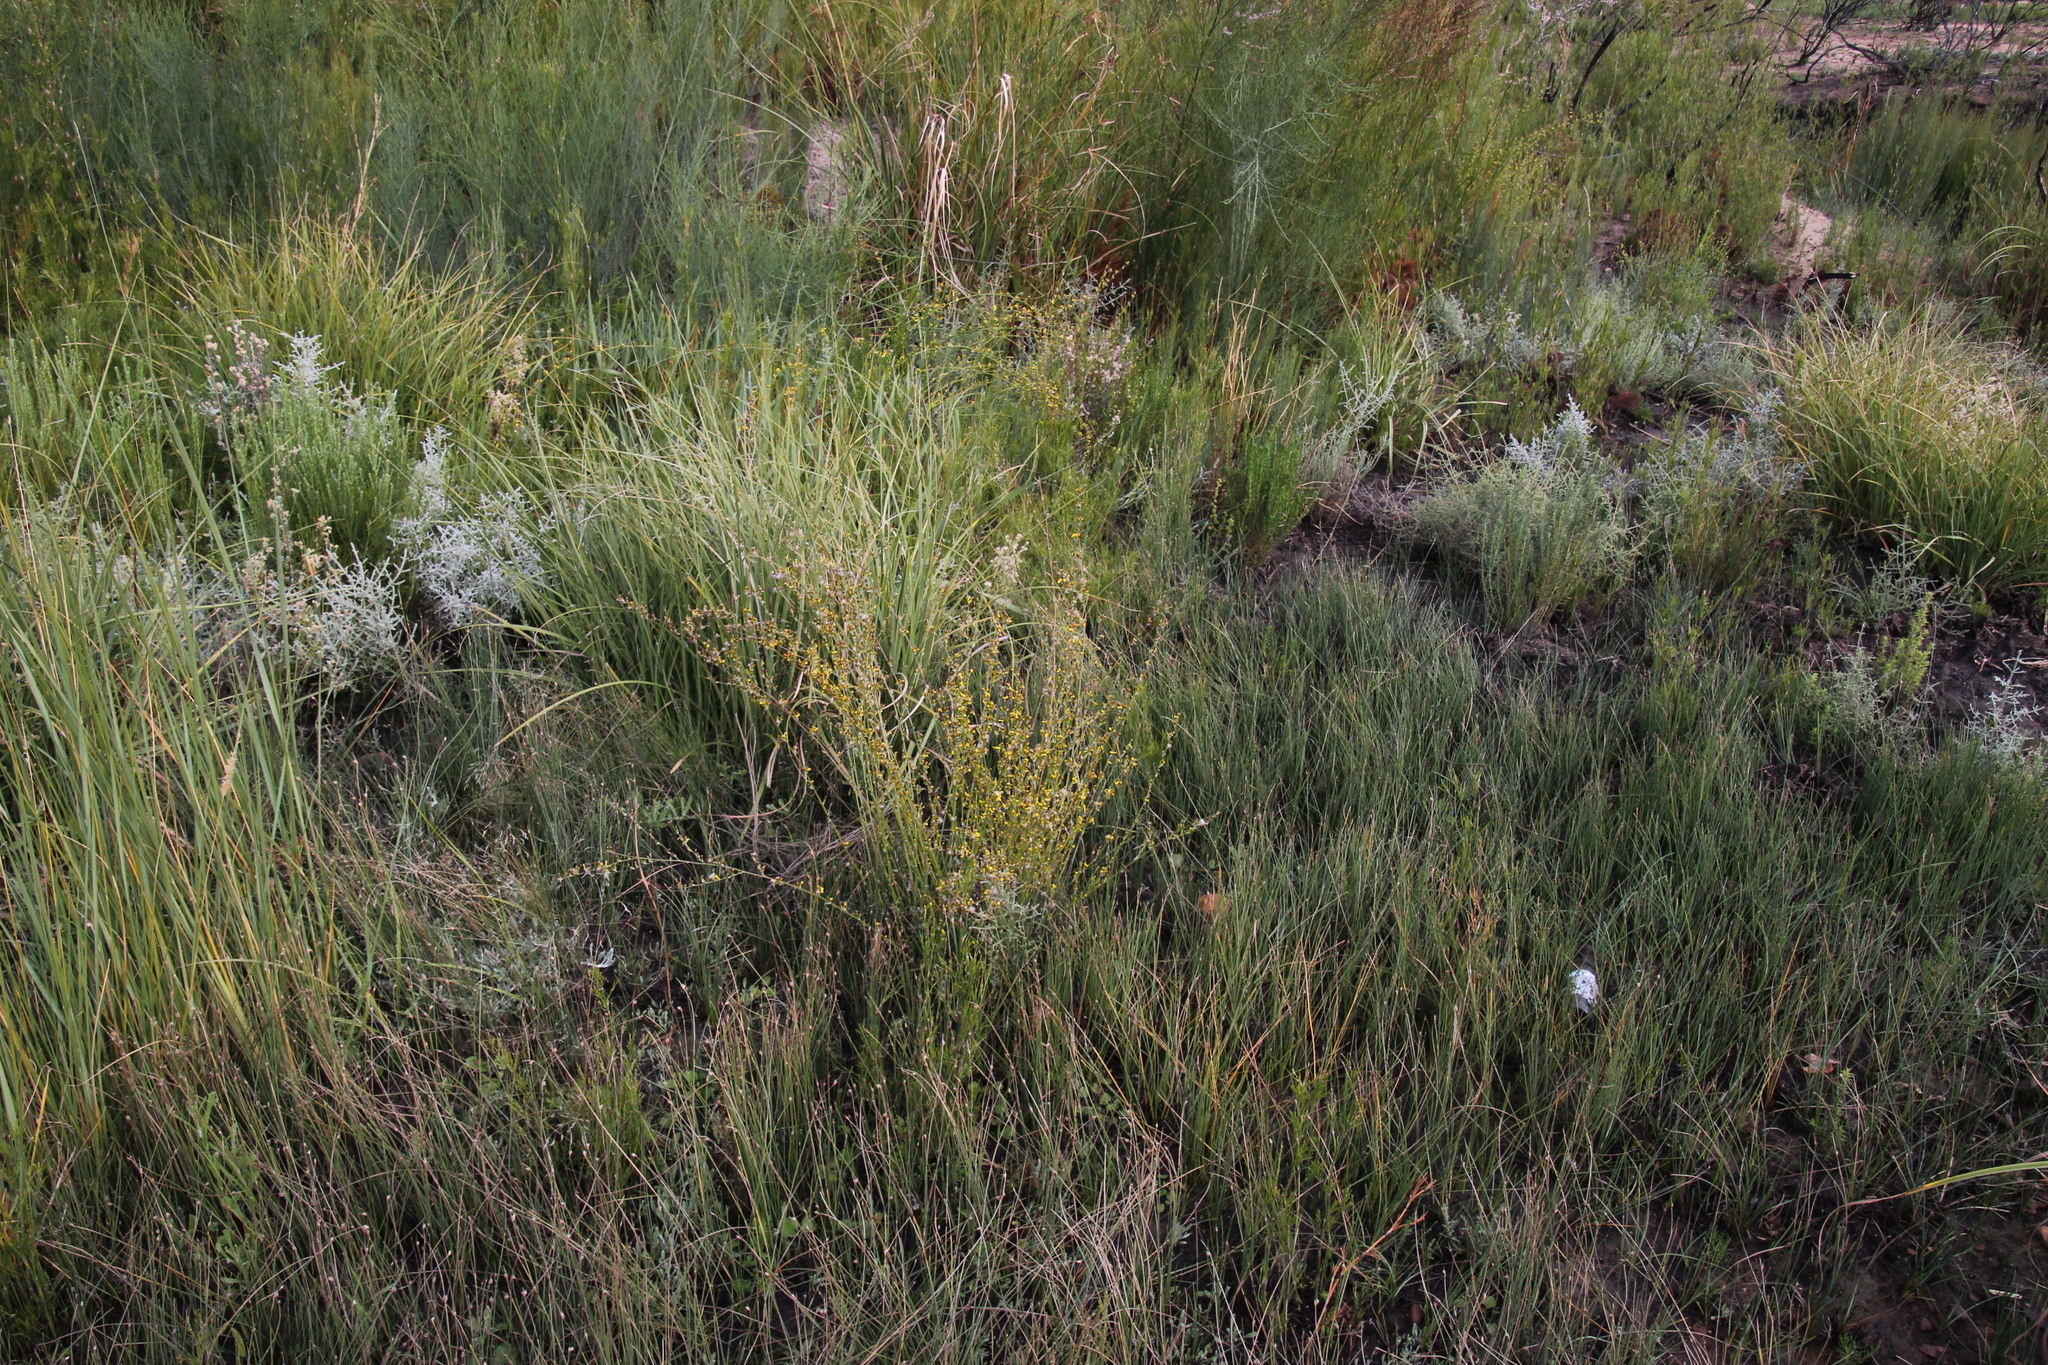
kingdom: Plantae
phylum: Tracheophyta
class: Magnoliopsida
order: Asterales
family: Asteraceae
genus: Senecio
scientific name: Senecio pubigerus
